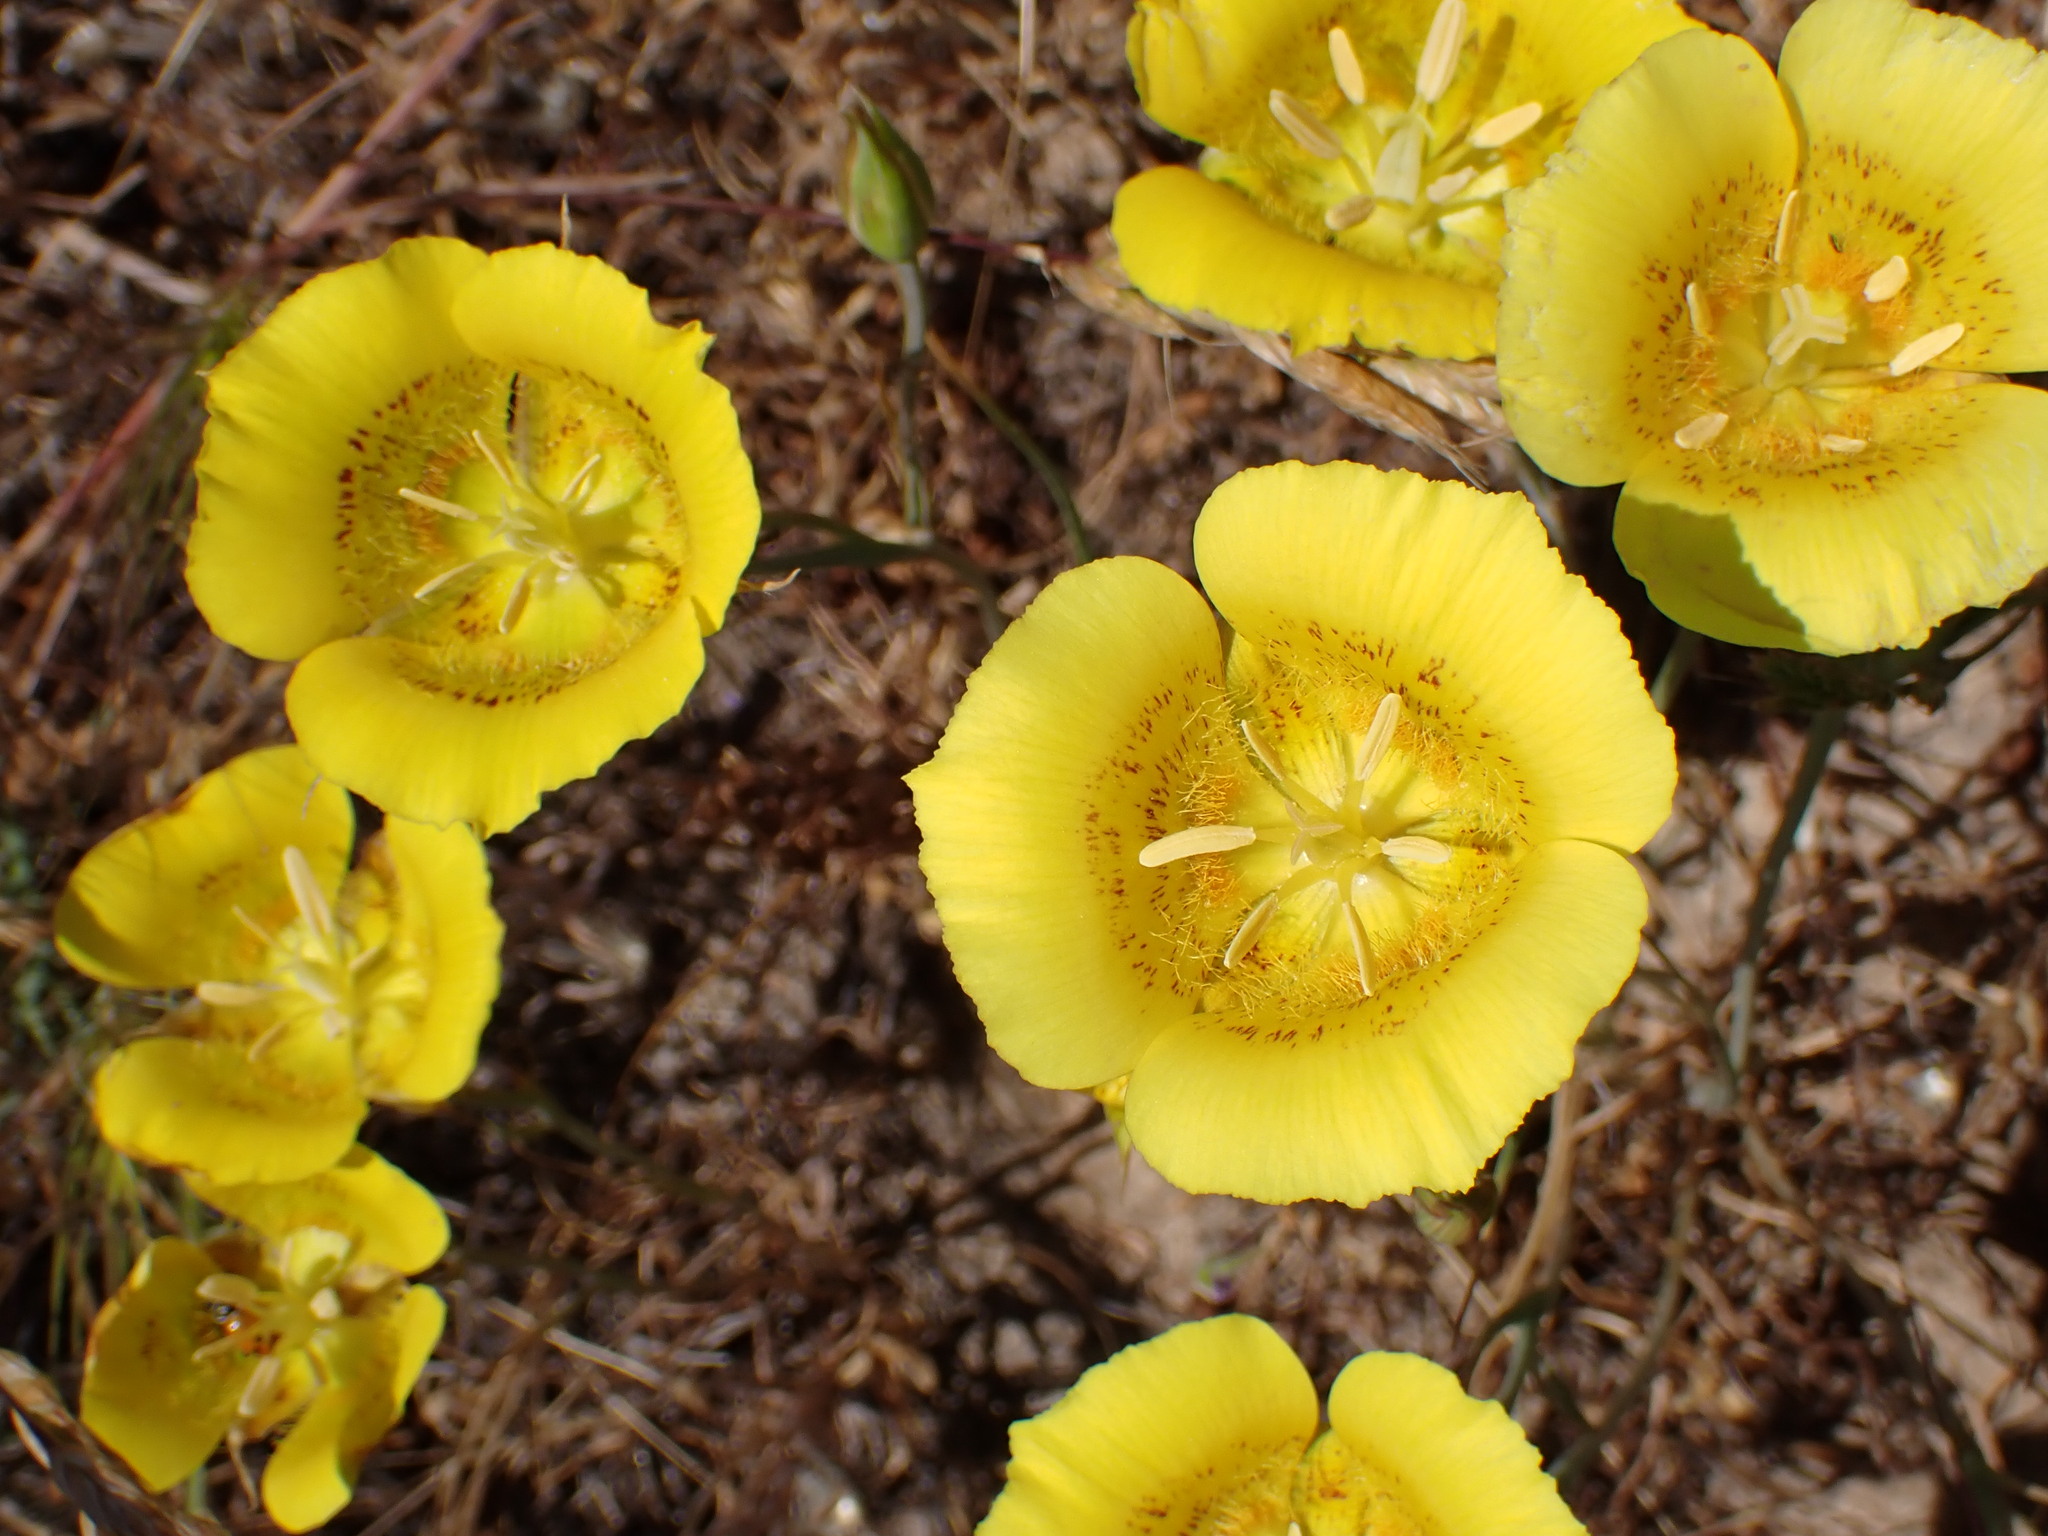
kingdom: Plantae
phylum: Tracheophyta
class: Liliopsida
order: Liliales
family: Liliaceae
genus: Calochortus
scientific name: Calochortus luteus
